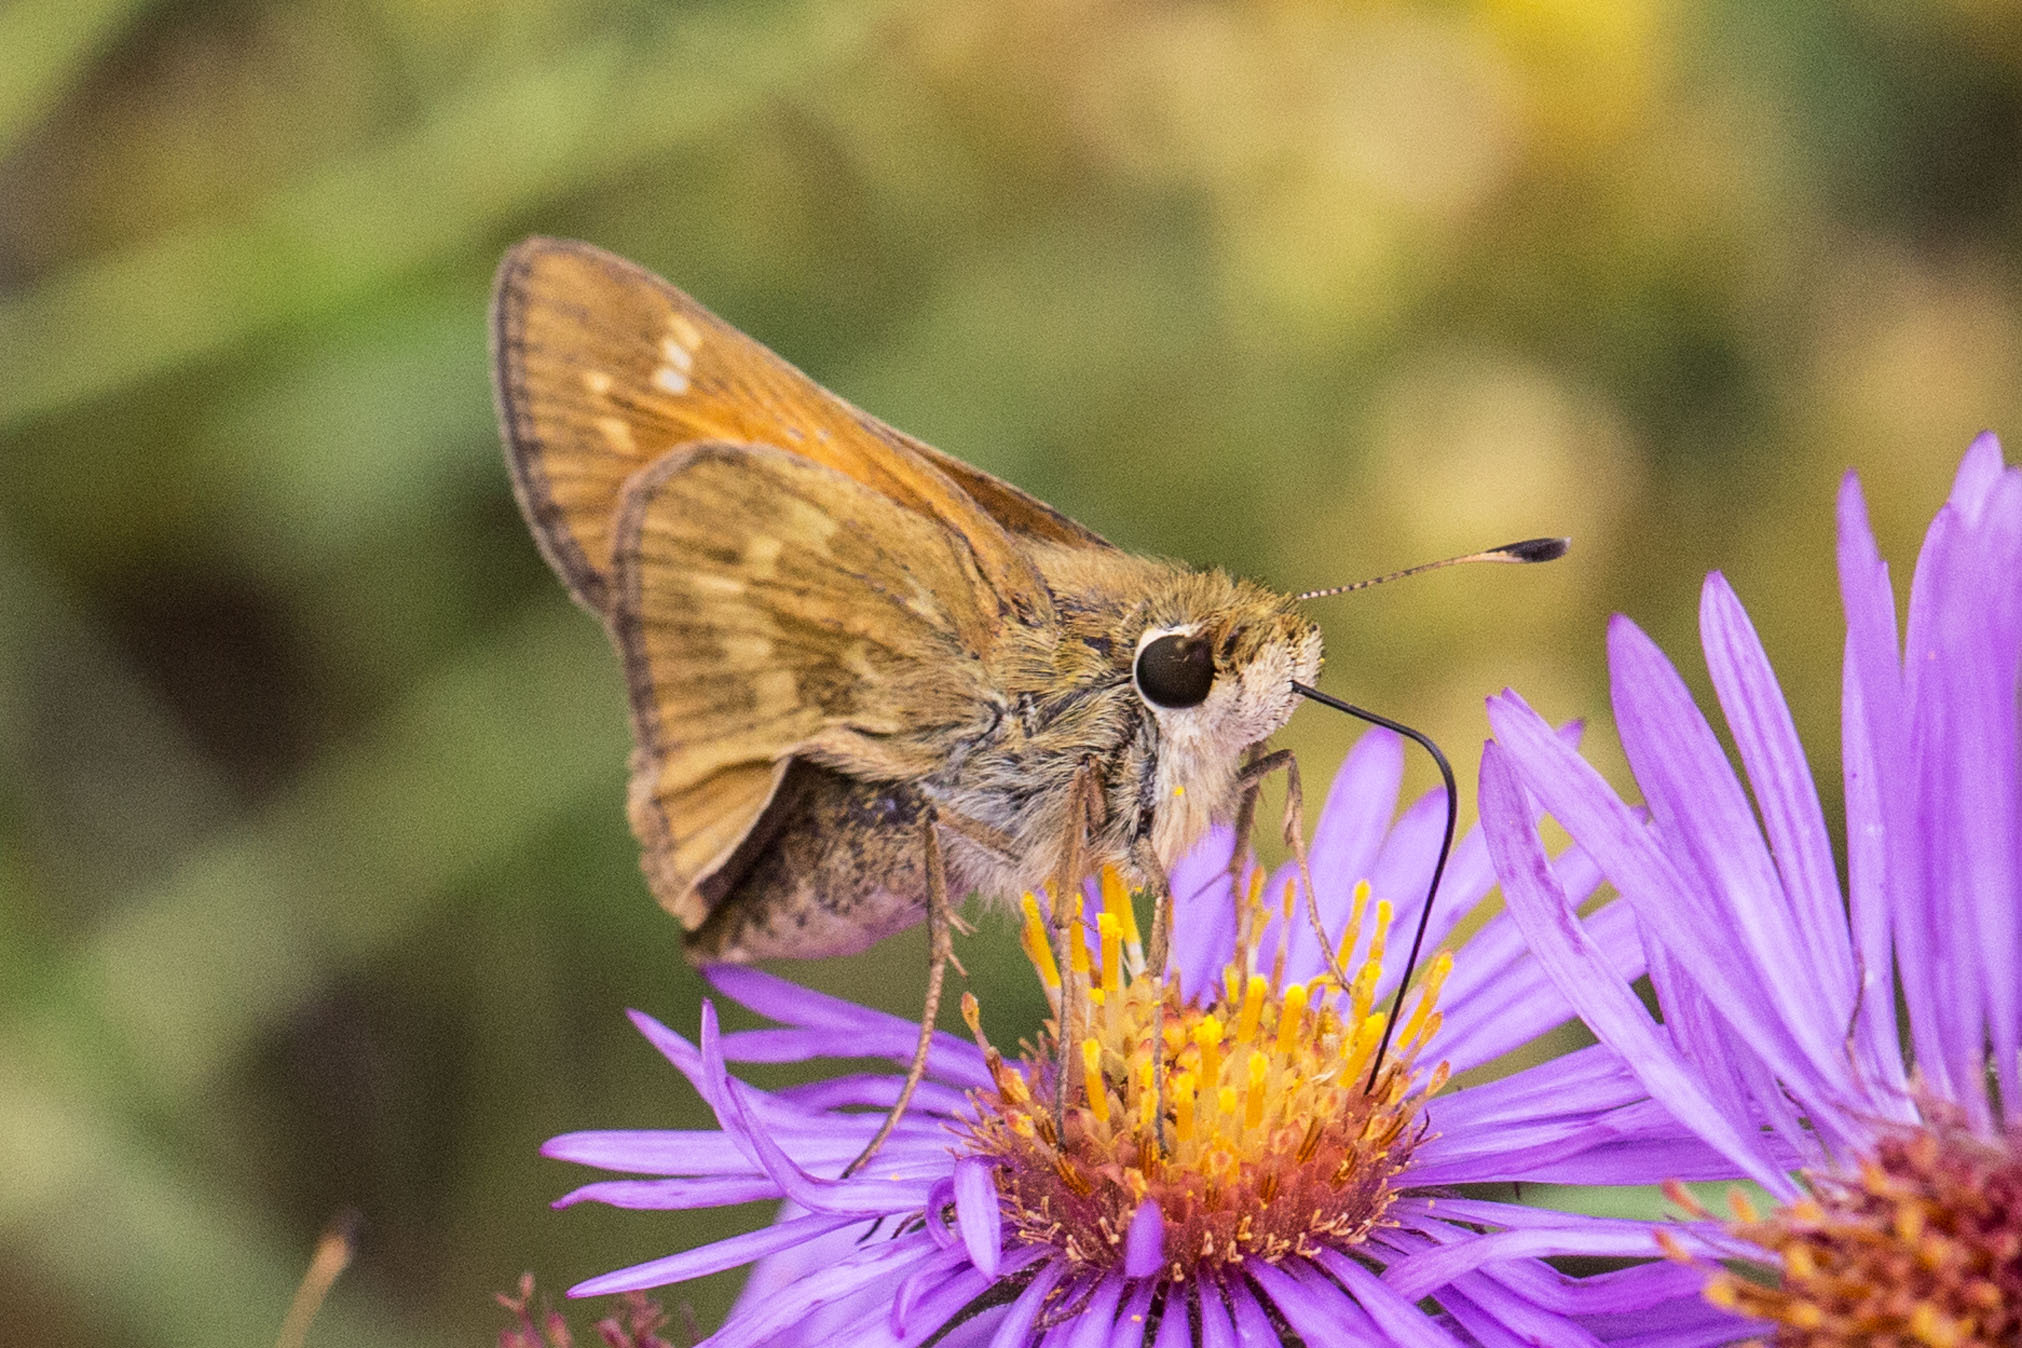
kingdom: Animalia
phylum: Arthropoda
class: Insecta
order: Lepidoptera
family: Hesperiidae
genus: Atalopedes
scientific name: Atalopedes
